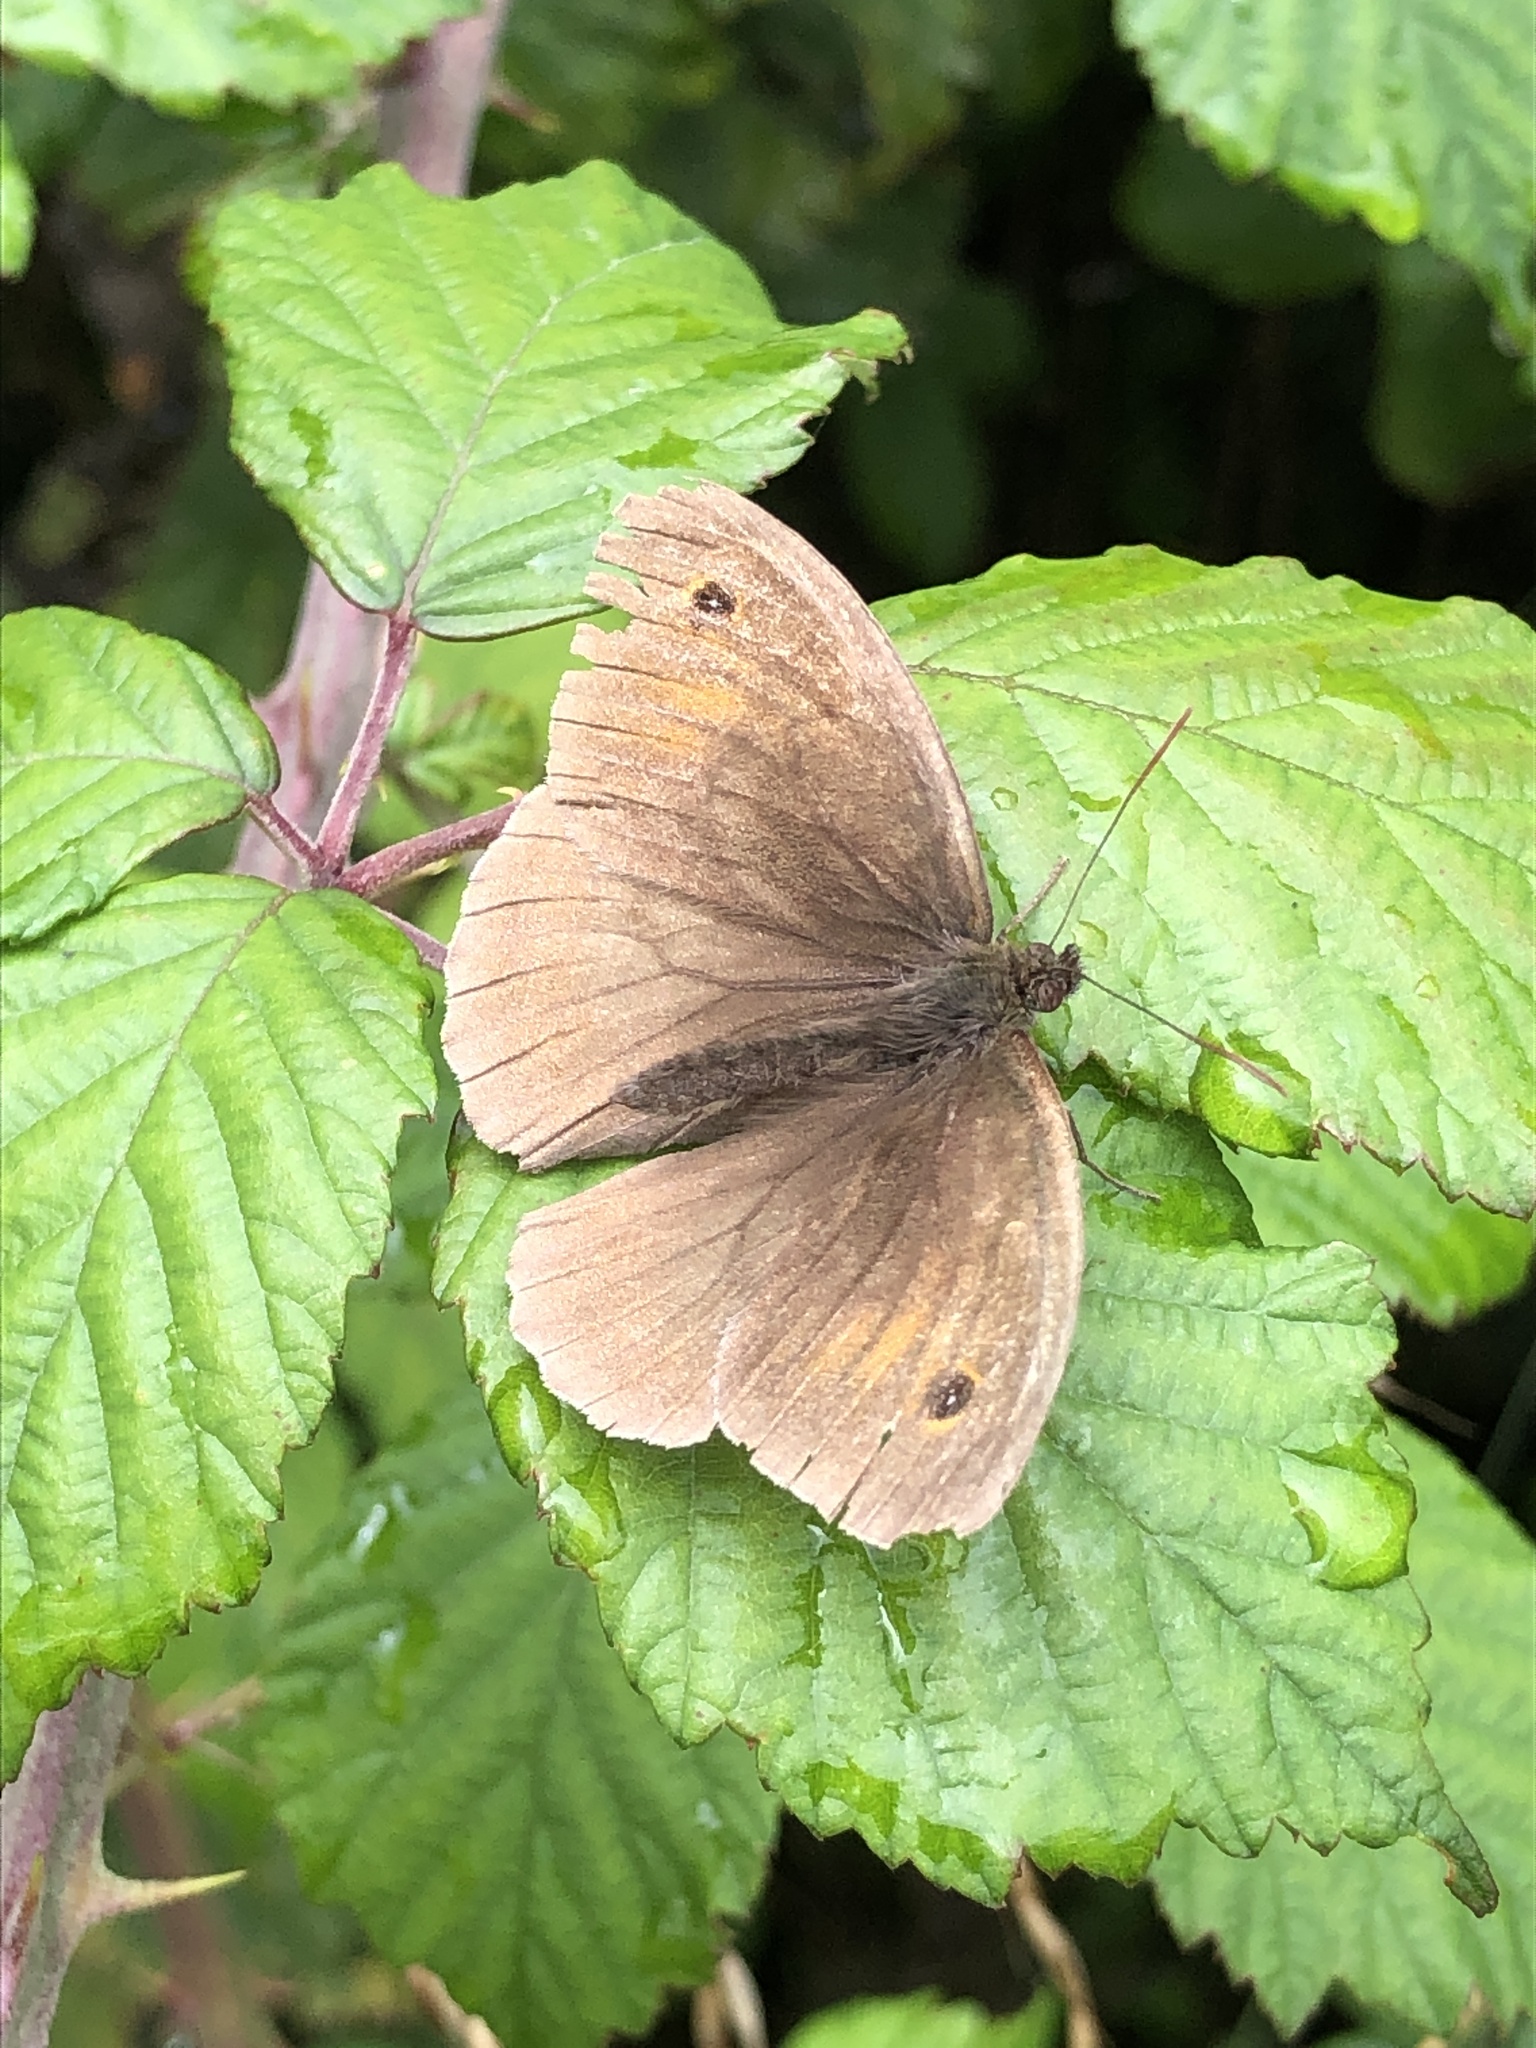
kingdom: Animalia
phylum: Arthropoda
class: Insecta
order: Lepidoptera
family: Nymphalidae
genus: Maniola
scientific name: Maniola jurtina
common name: Meadow brown
